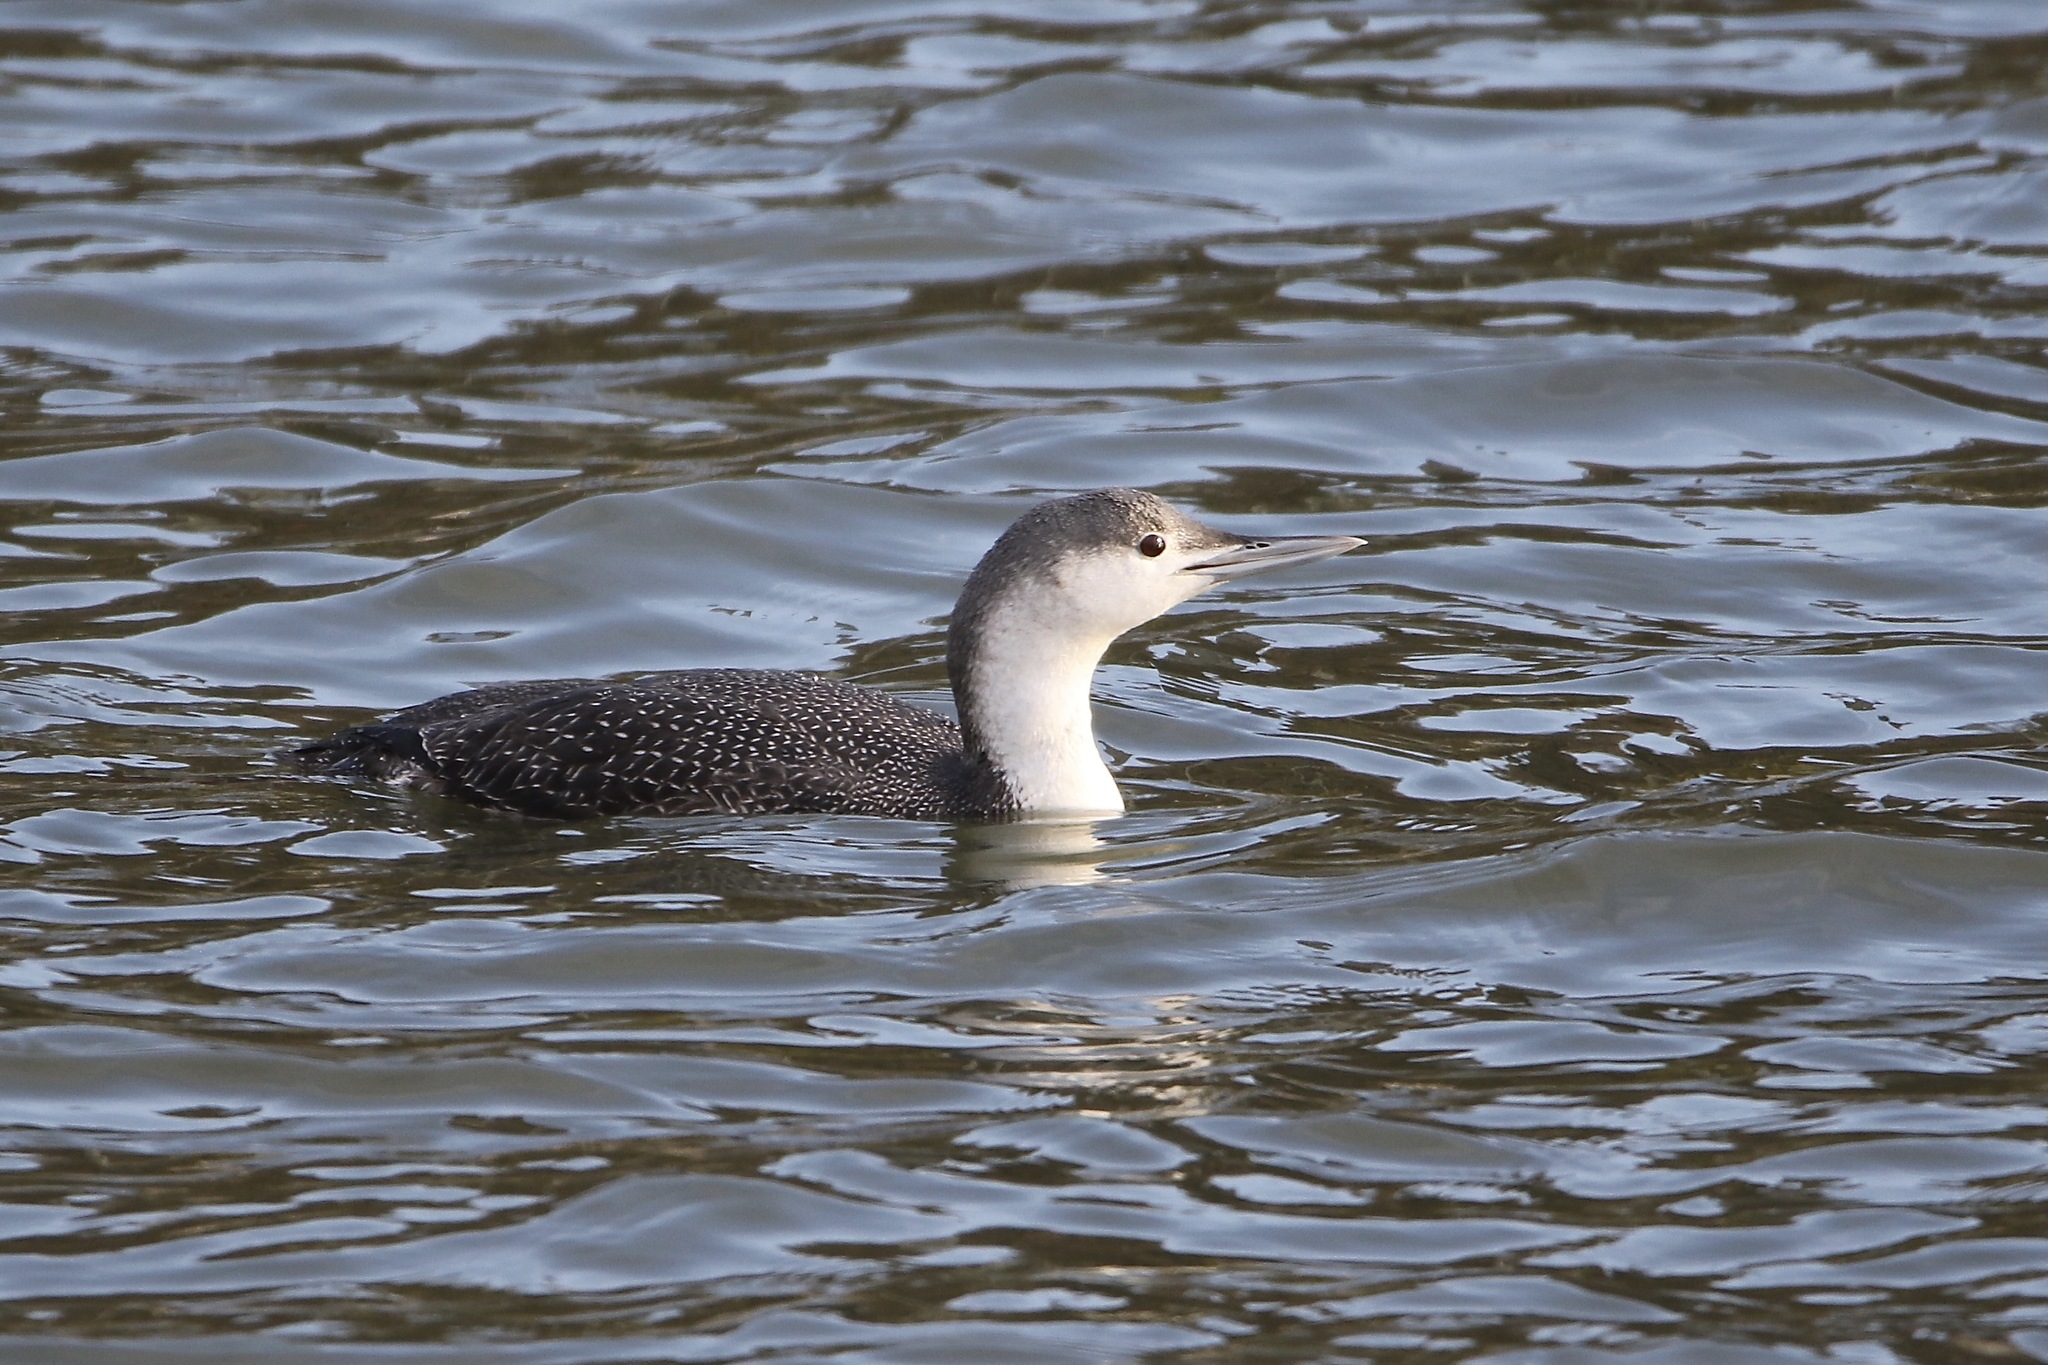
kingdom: Animalia
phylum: Chordata
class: Aves
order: Gaviiformes
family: Gaviidae
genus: Gavia
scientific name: Gavia stellata
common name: Red-throated loon
